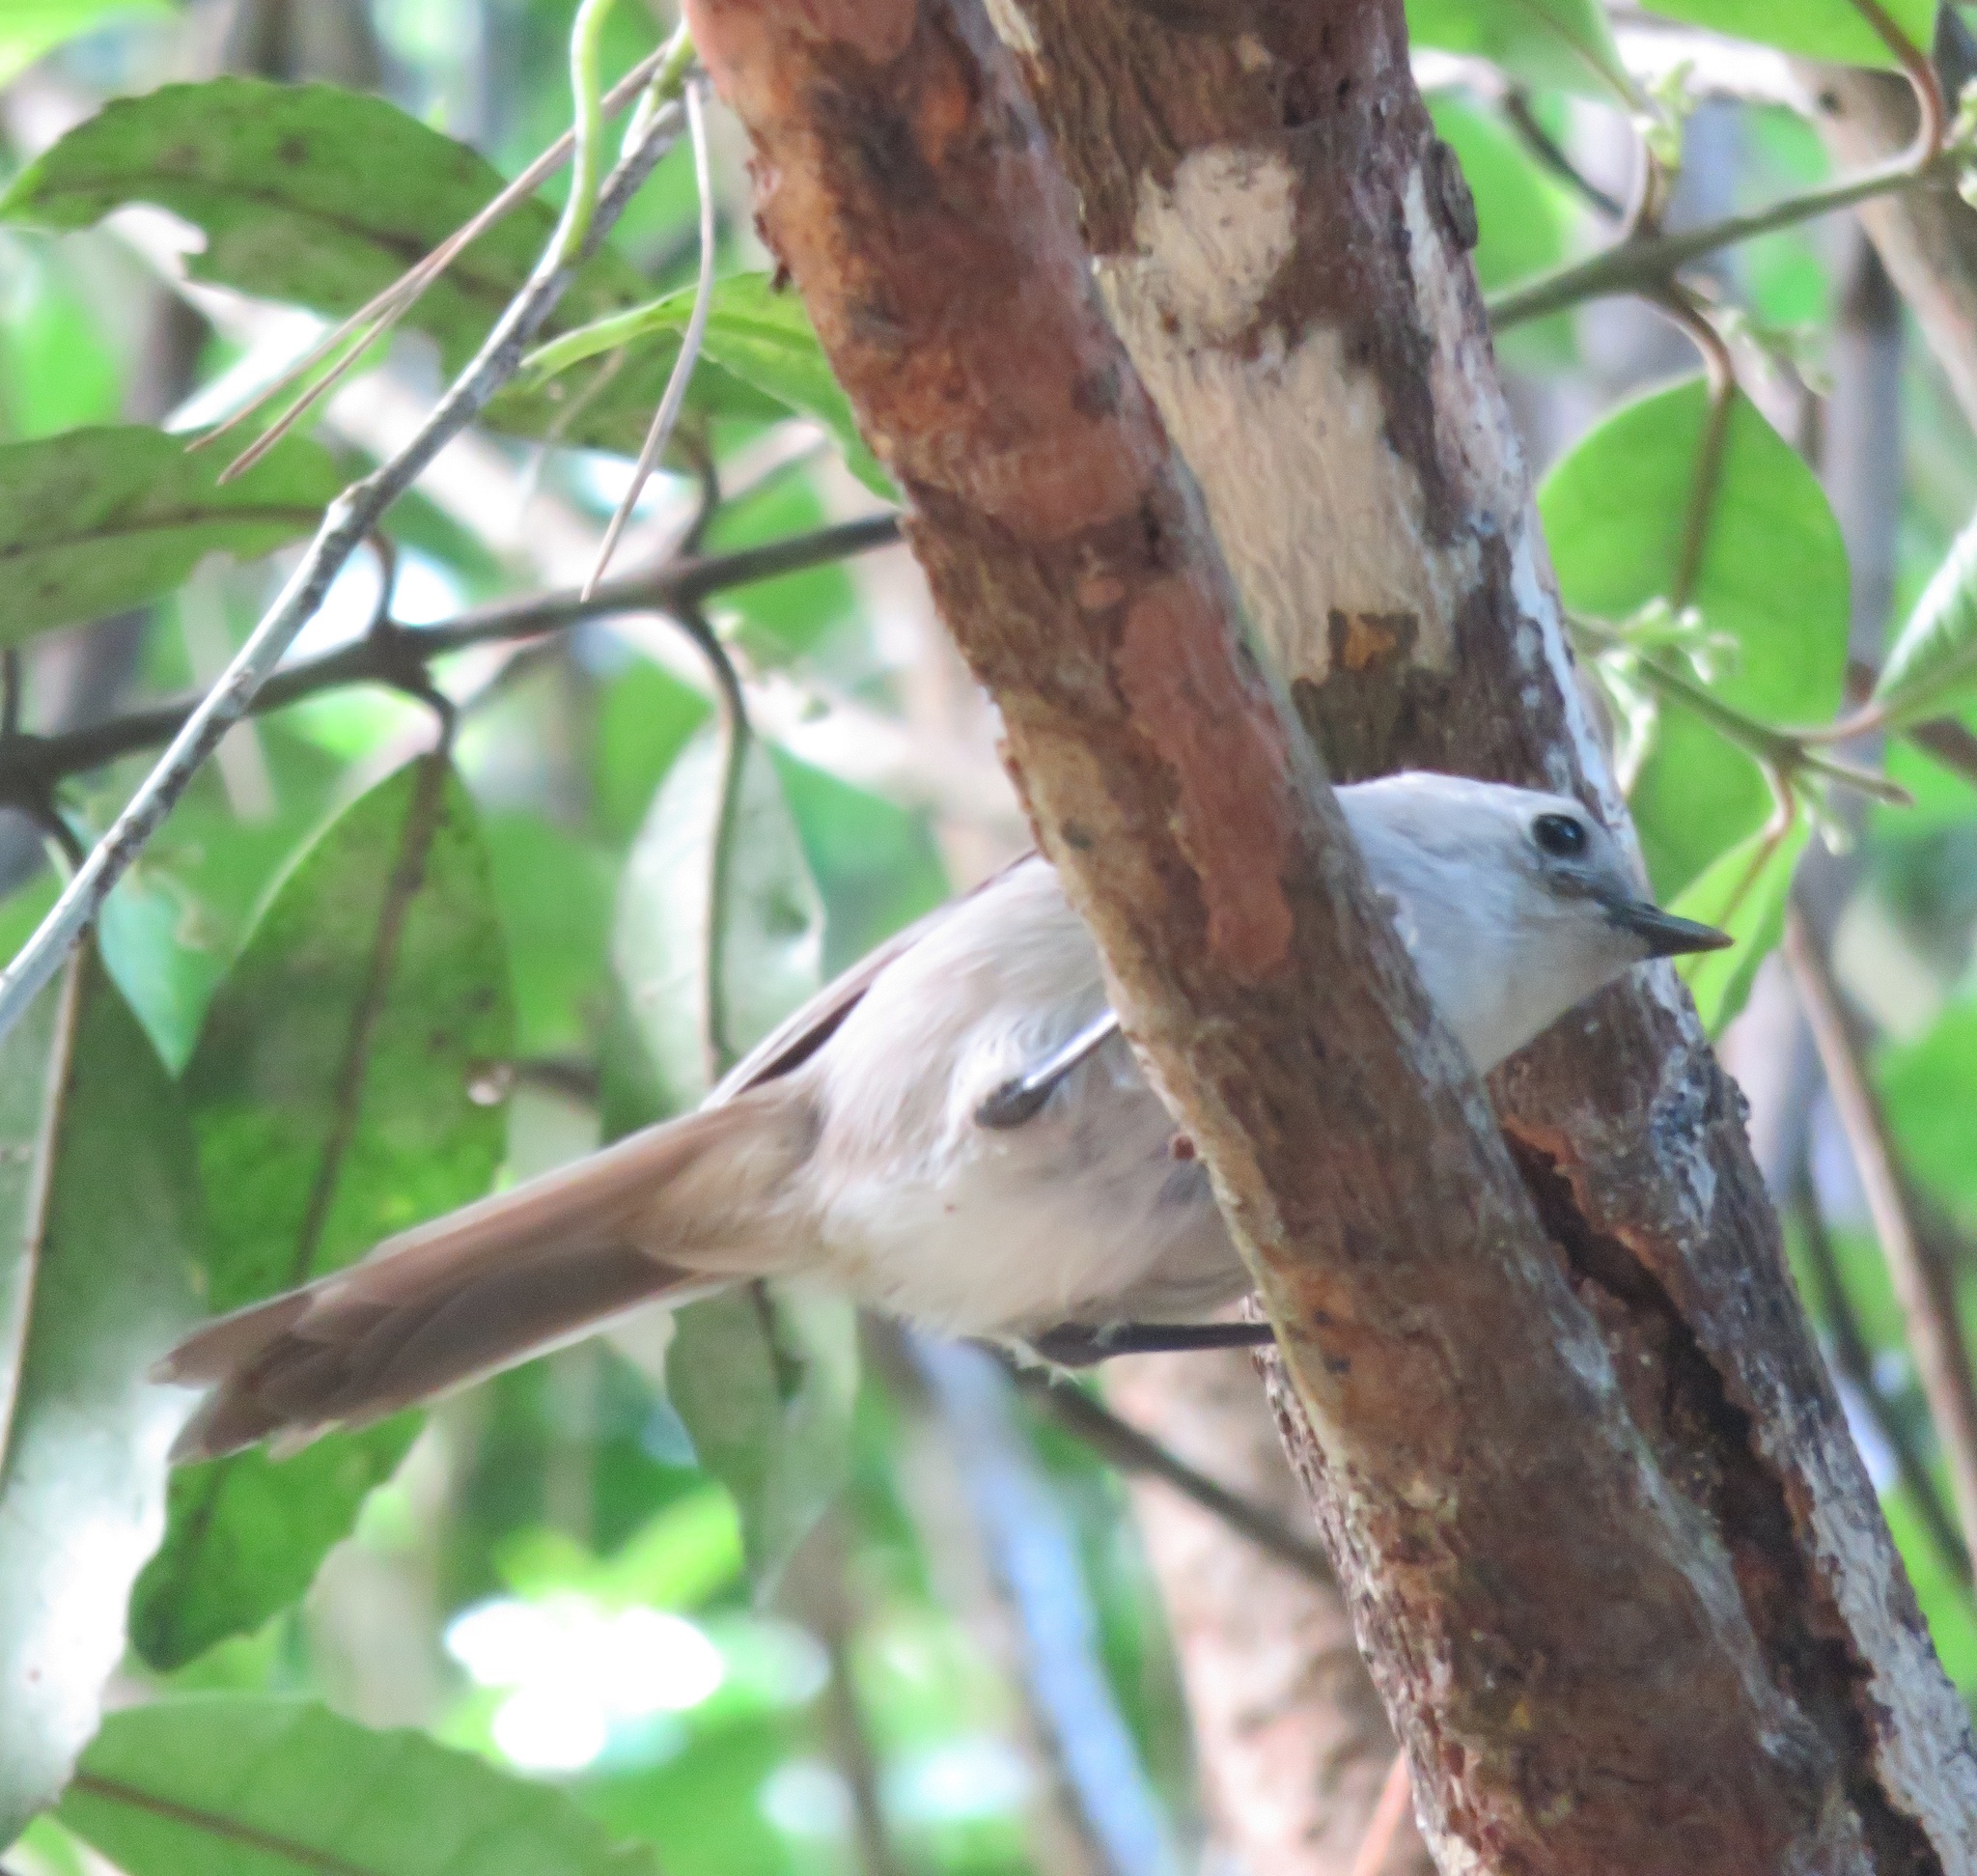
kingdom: Animalia
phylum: Chordata
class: Aves
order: Passeriformes
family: Acanthizidae
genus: Mohoua
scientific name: Mohoua albicilla
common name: Whitehead
